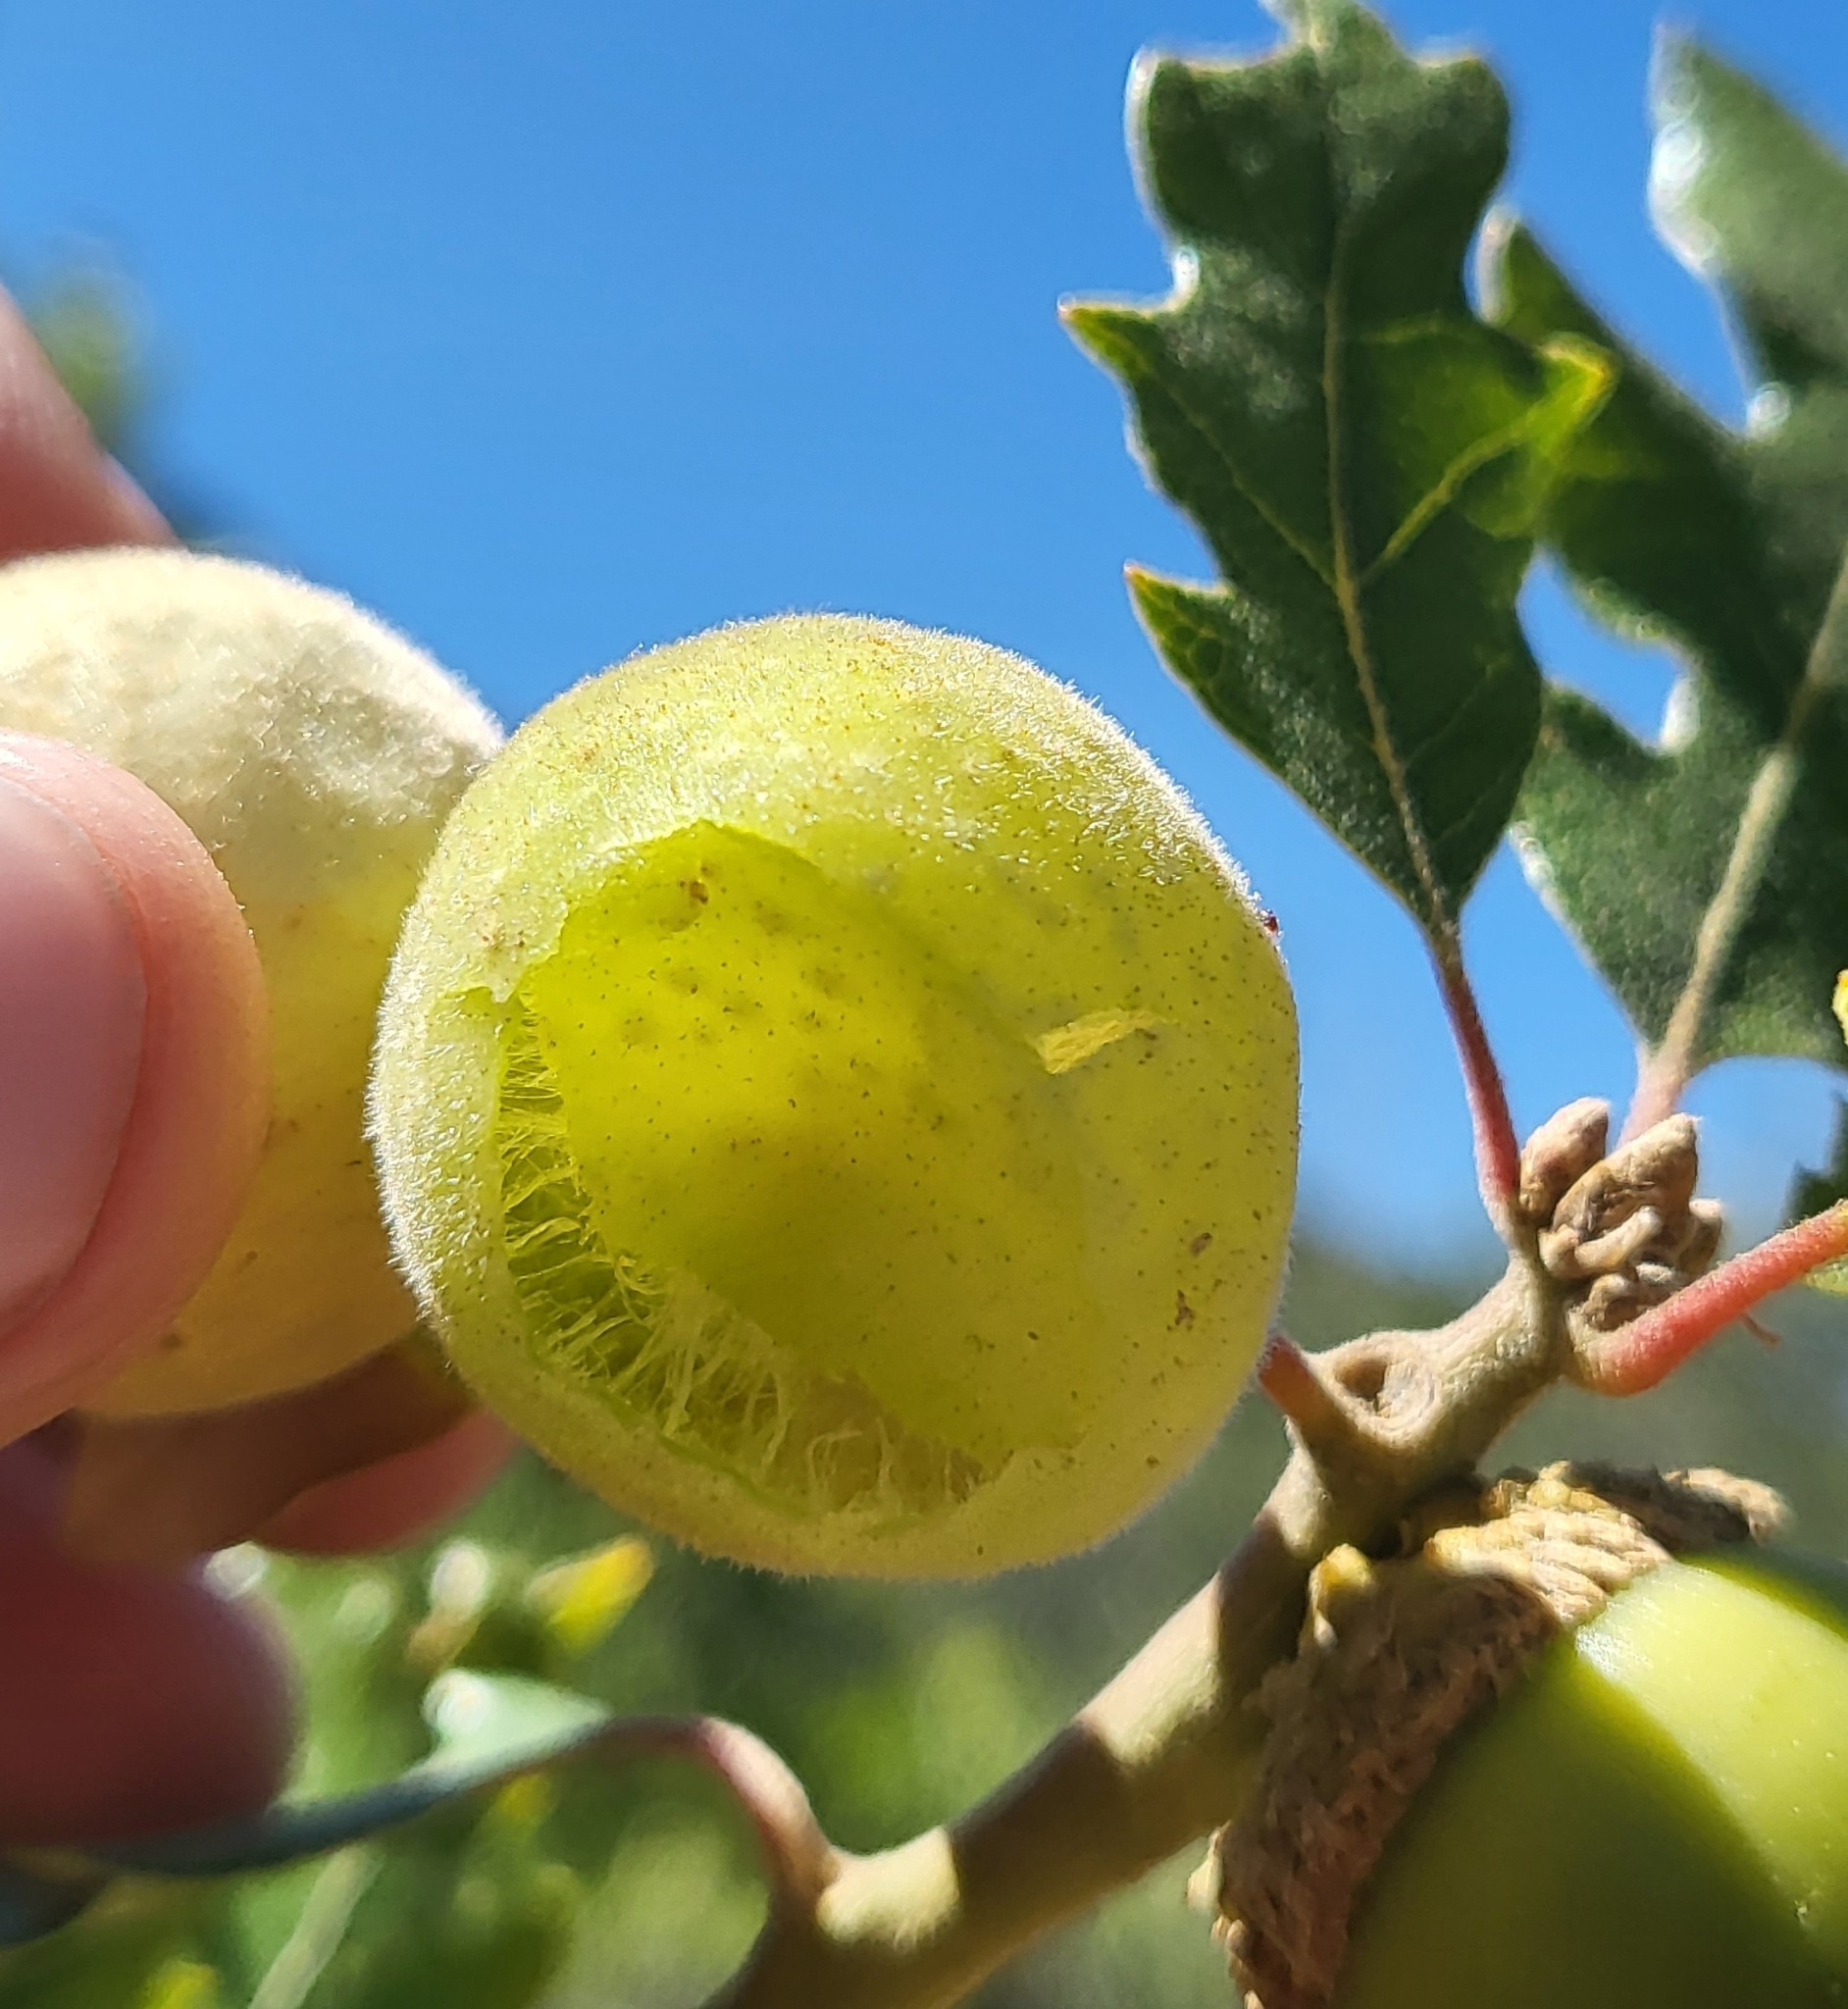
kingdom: Animalia
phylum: Arthropoda
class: Insecta
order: Hymenoptera
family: Cynipidae
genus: Cynips
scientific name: Cynips
